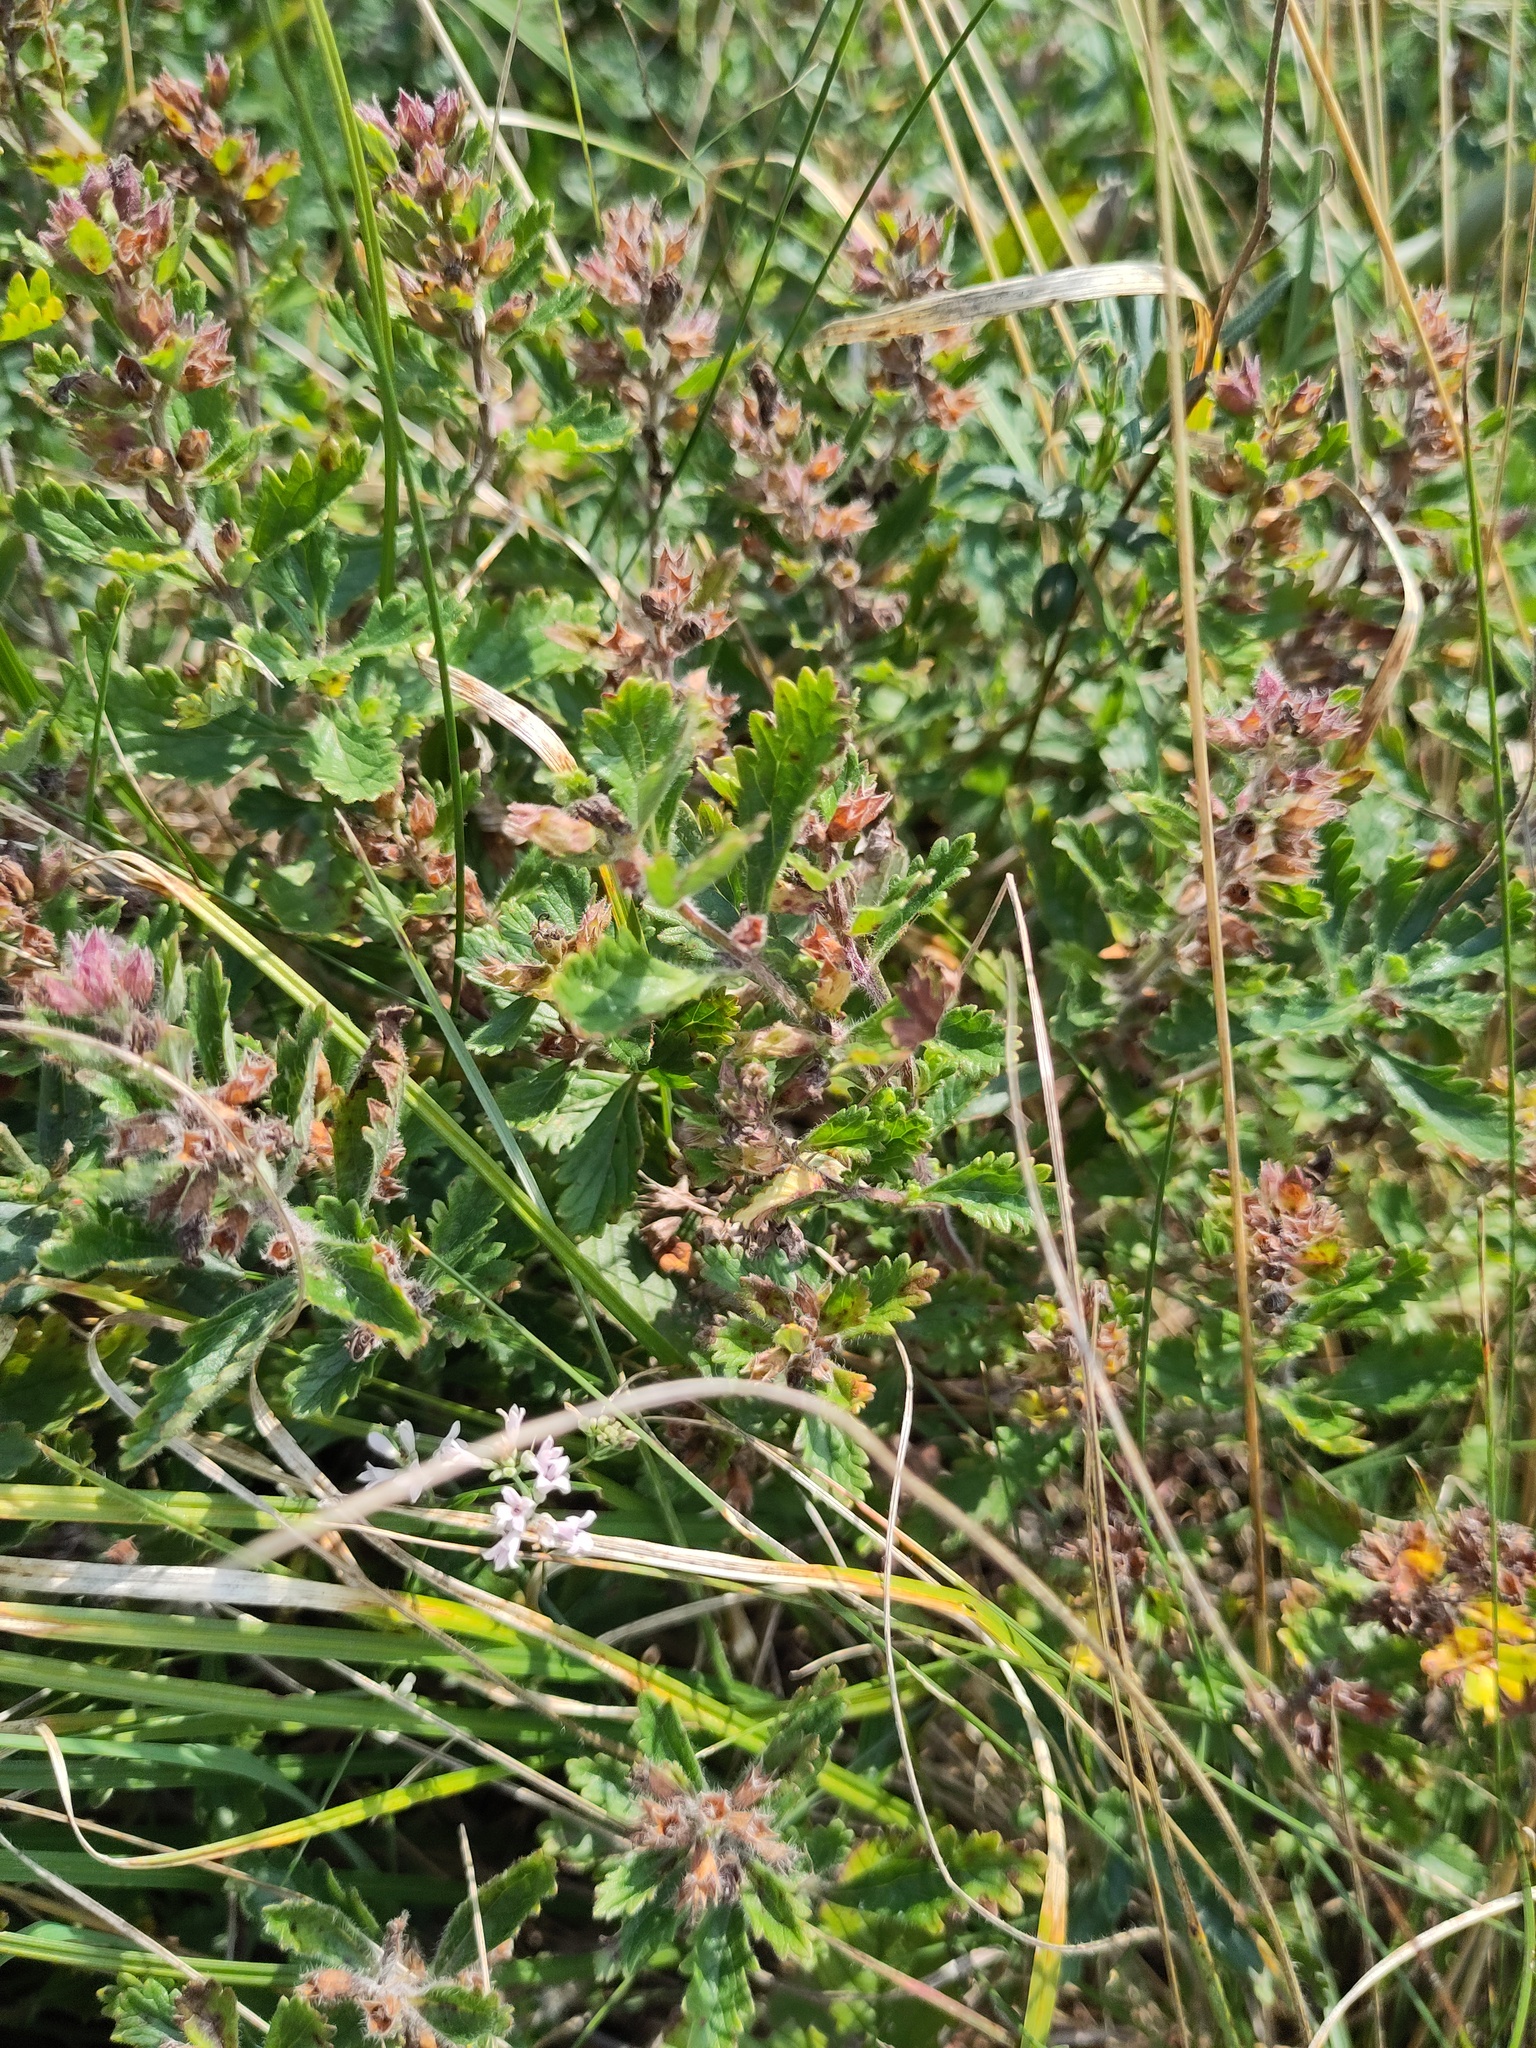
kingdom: Plantae
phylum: Tracheophyta
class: Magnoliopsida
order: Lamiales
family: Lamiaceae
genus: Teucrium
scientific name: Teucrium chamaedrys
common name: Wall germander
